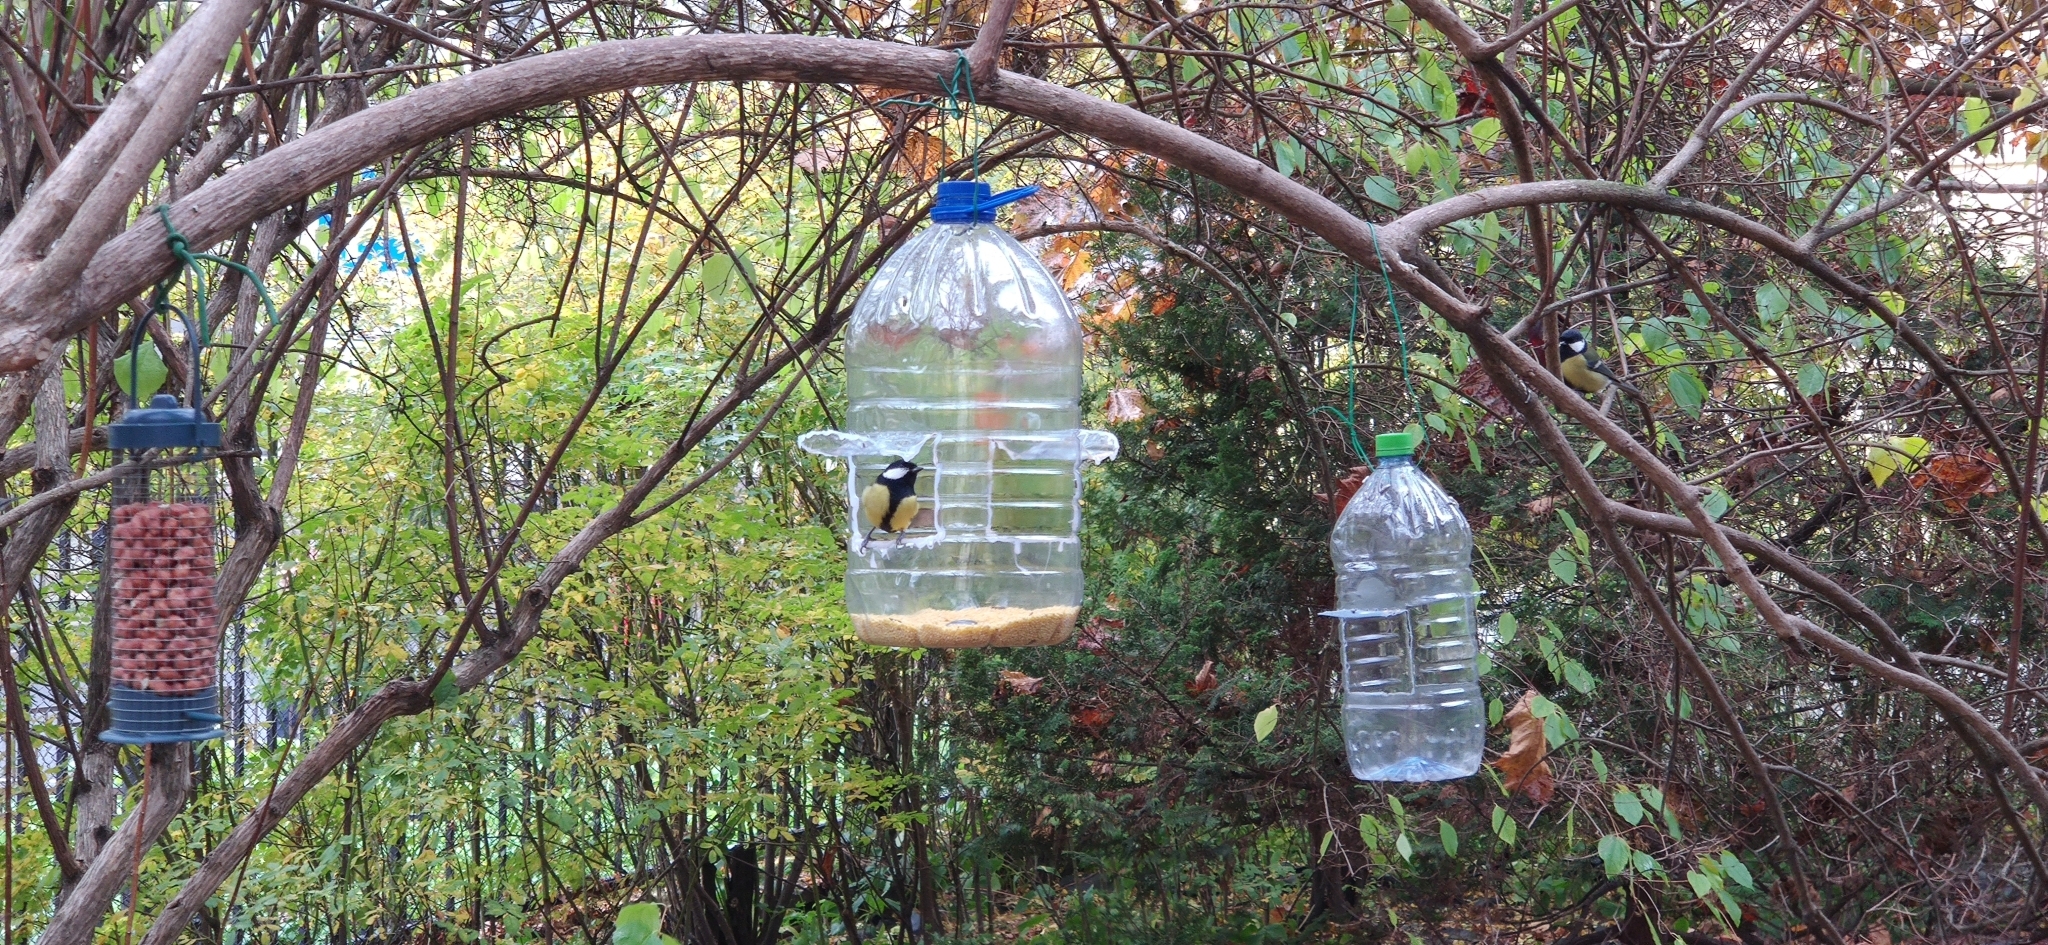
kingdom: Animalia
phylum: Chordata
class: Aves
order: Passeriformes
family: Paridae
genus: Parus
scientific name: Parus major
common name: Great tit
